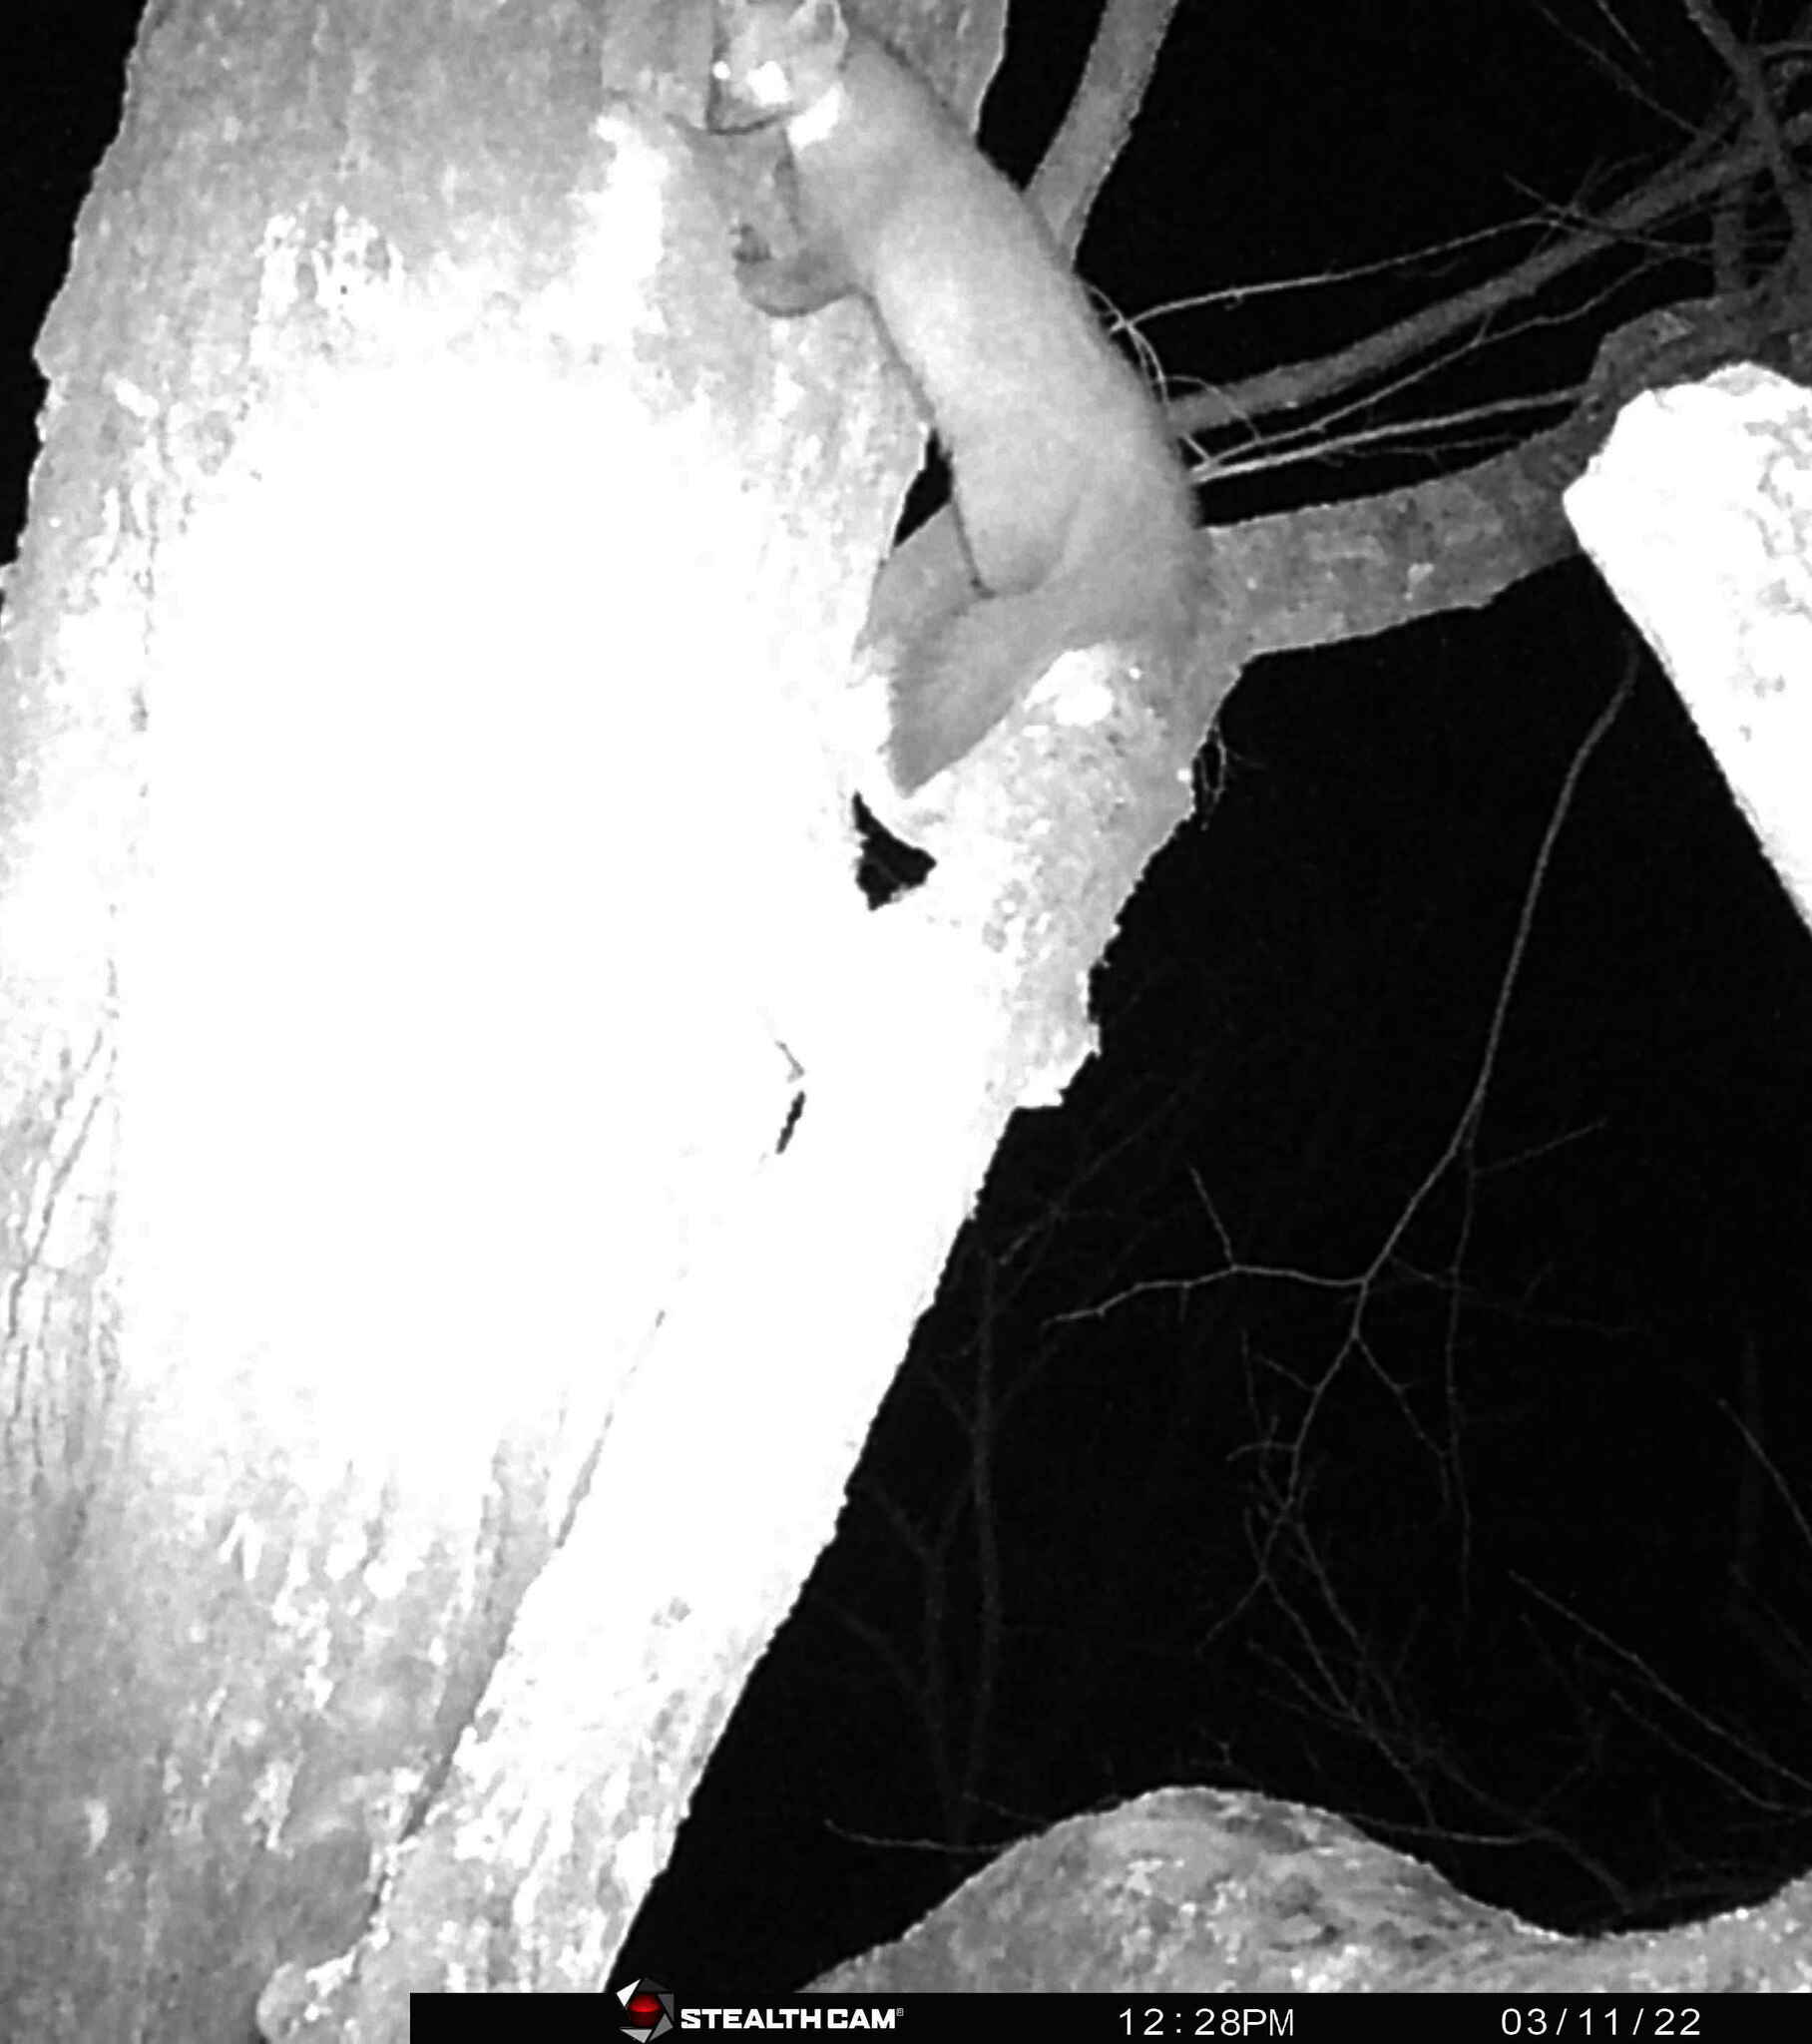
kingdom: Animalia
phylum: Chordata
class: Mammalia
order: Carnivora
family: Mustelidae
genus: Martes
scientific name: Martes martes
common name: European pine marten
